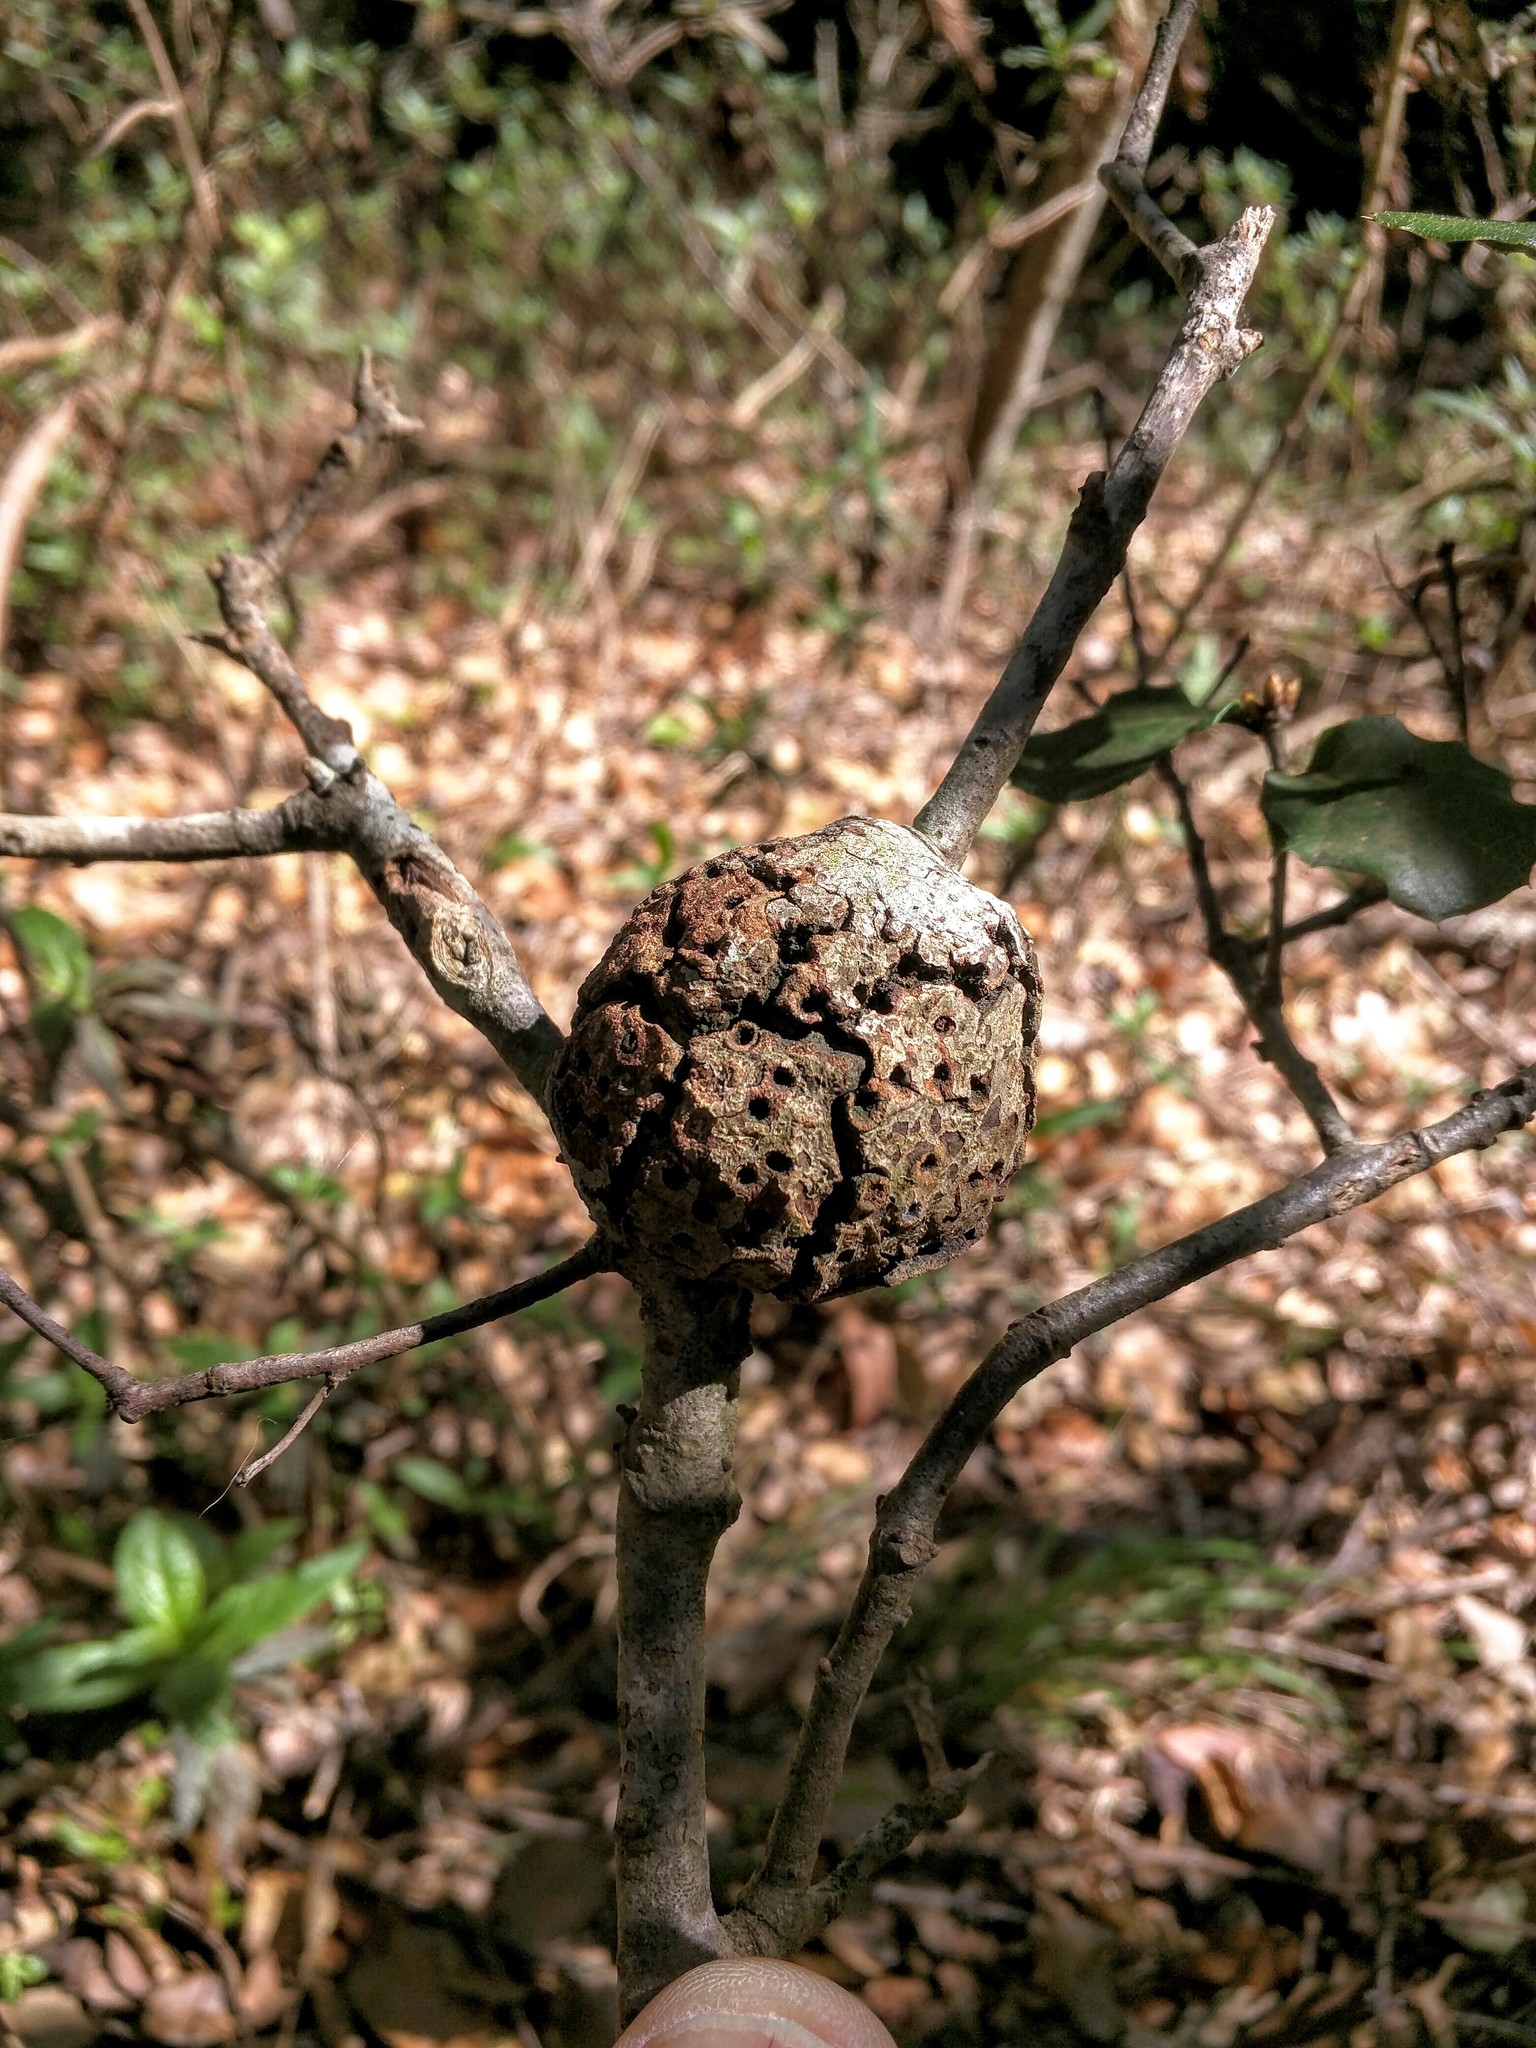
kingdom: Plantae
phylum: Tracheophyta
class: Magnoliopsida
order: Fagales
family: Fagaceae
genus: Quercus
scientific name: Quercus agrifolia
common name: California live oak
